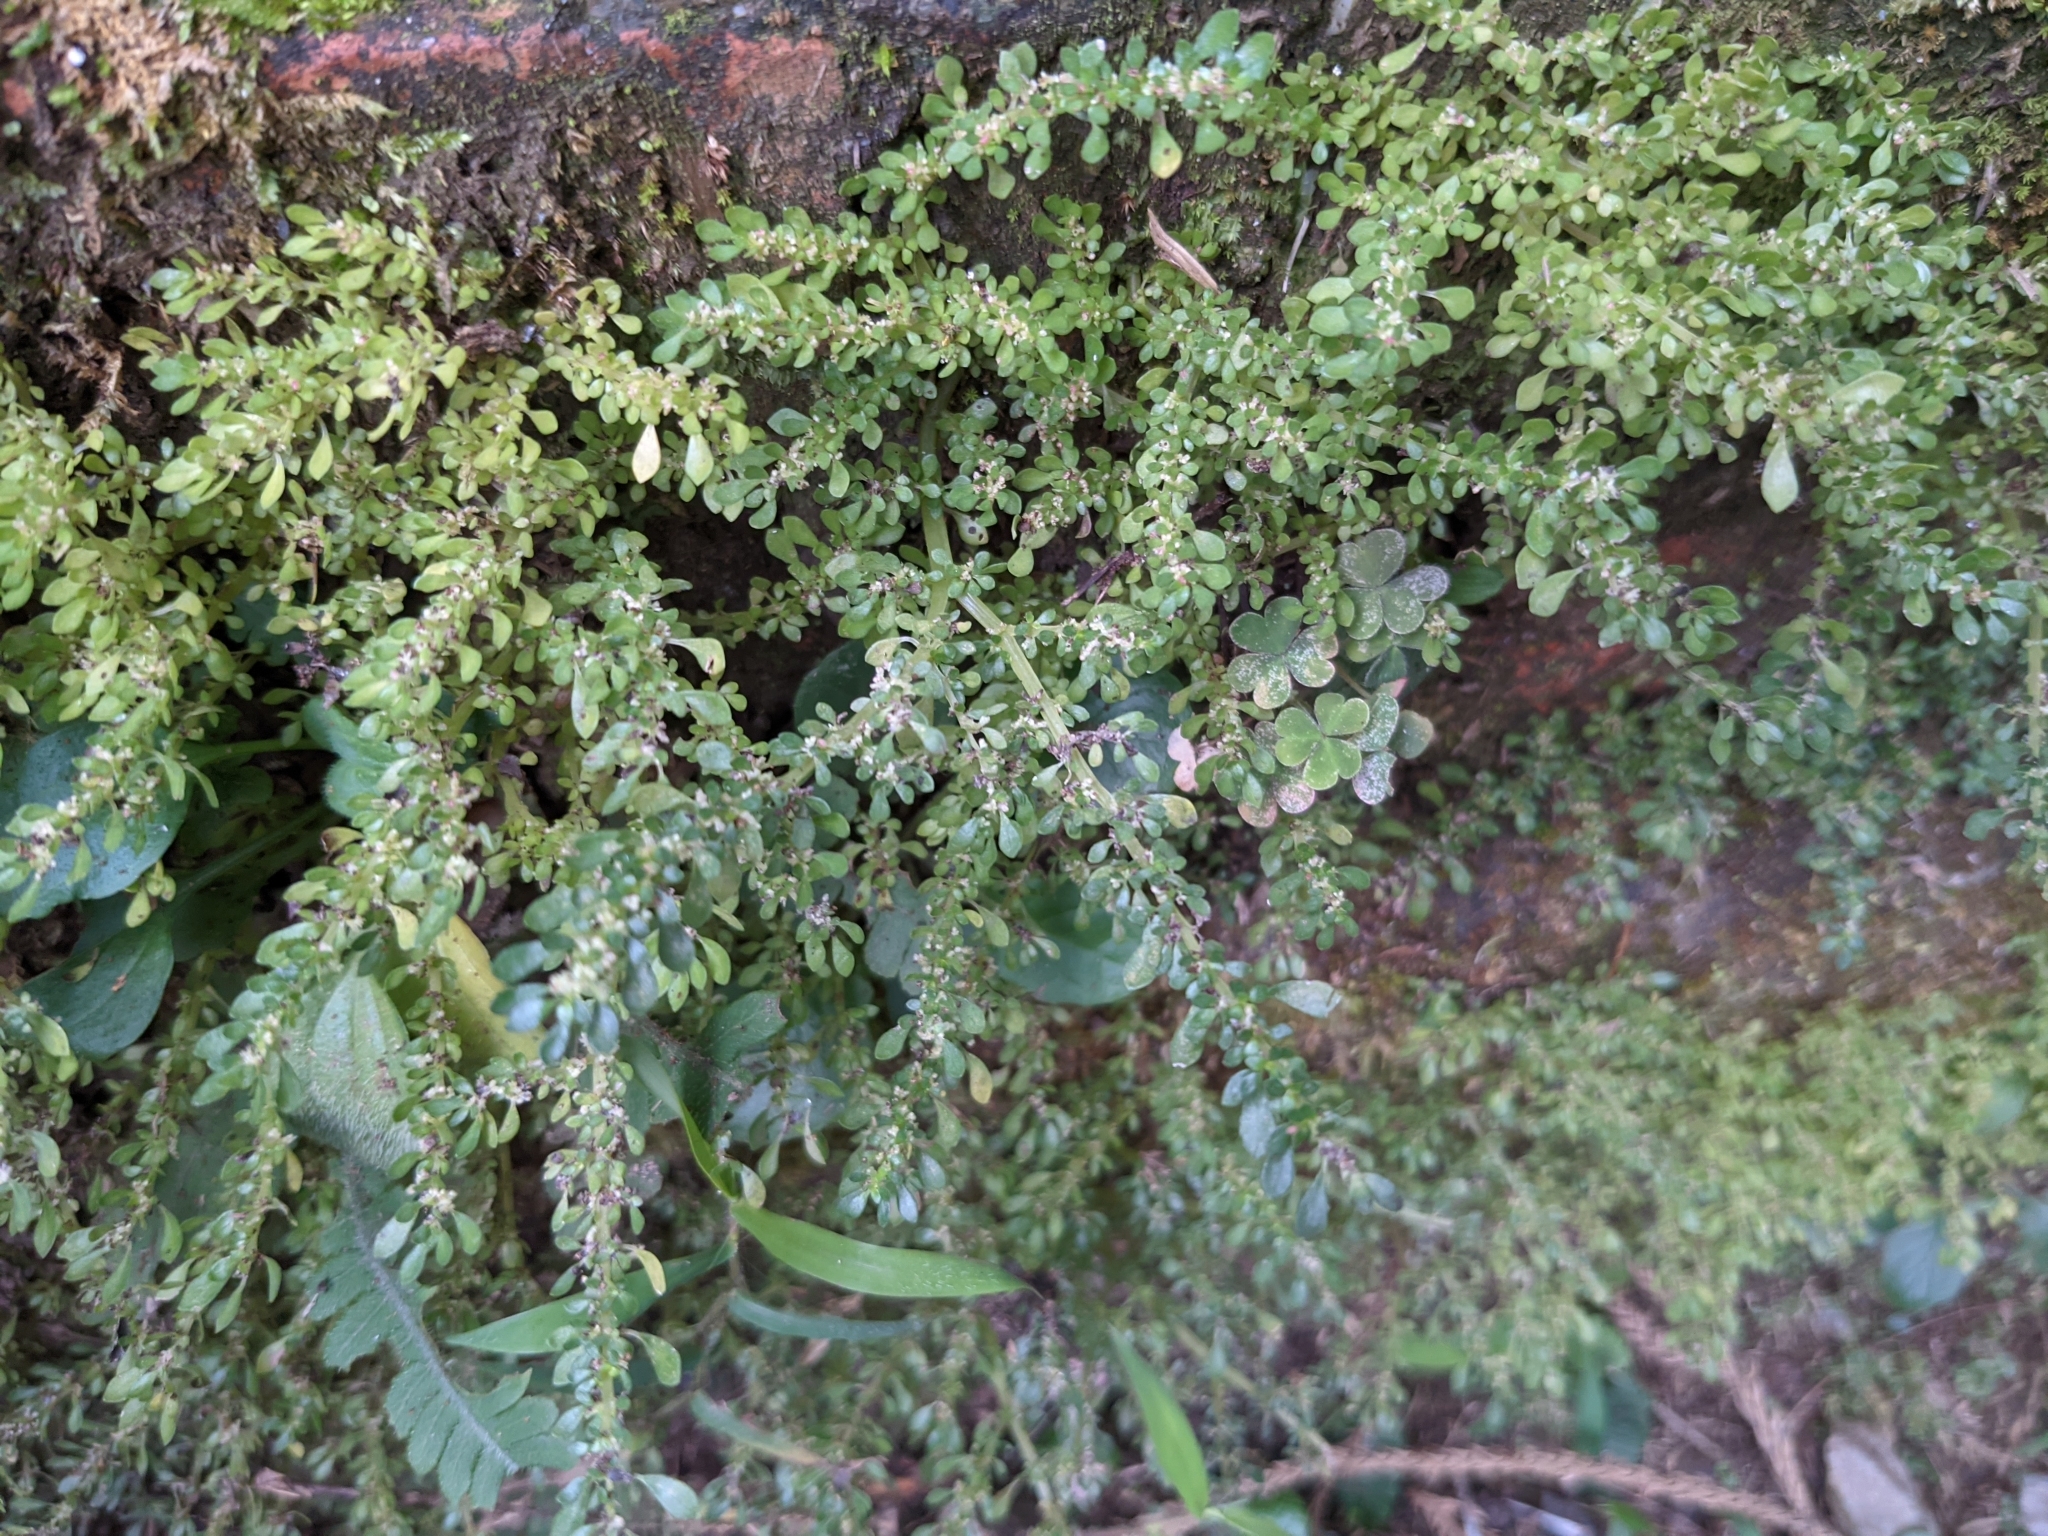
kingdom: Plantae
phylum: Tracheophyta
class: Magnoliopsida
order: Rosales
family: Urticaceae
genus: Pilea
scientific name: Pilea microphylla
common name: Artillery-plant
